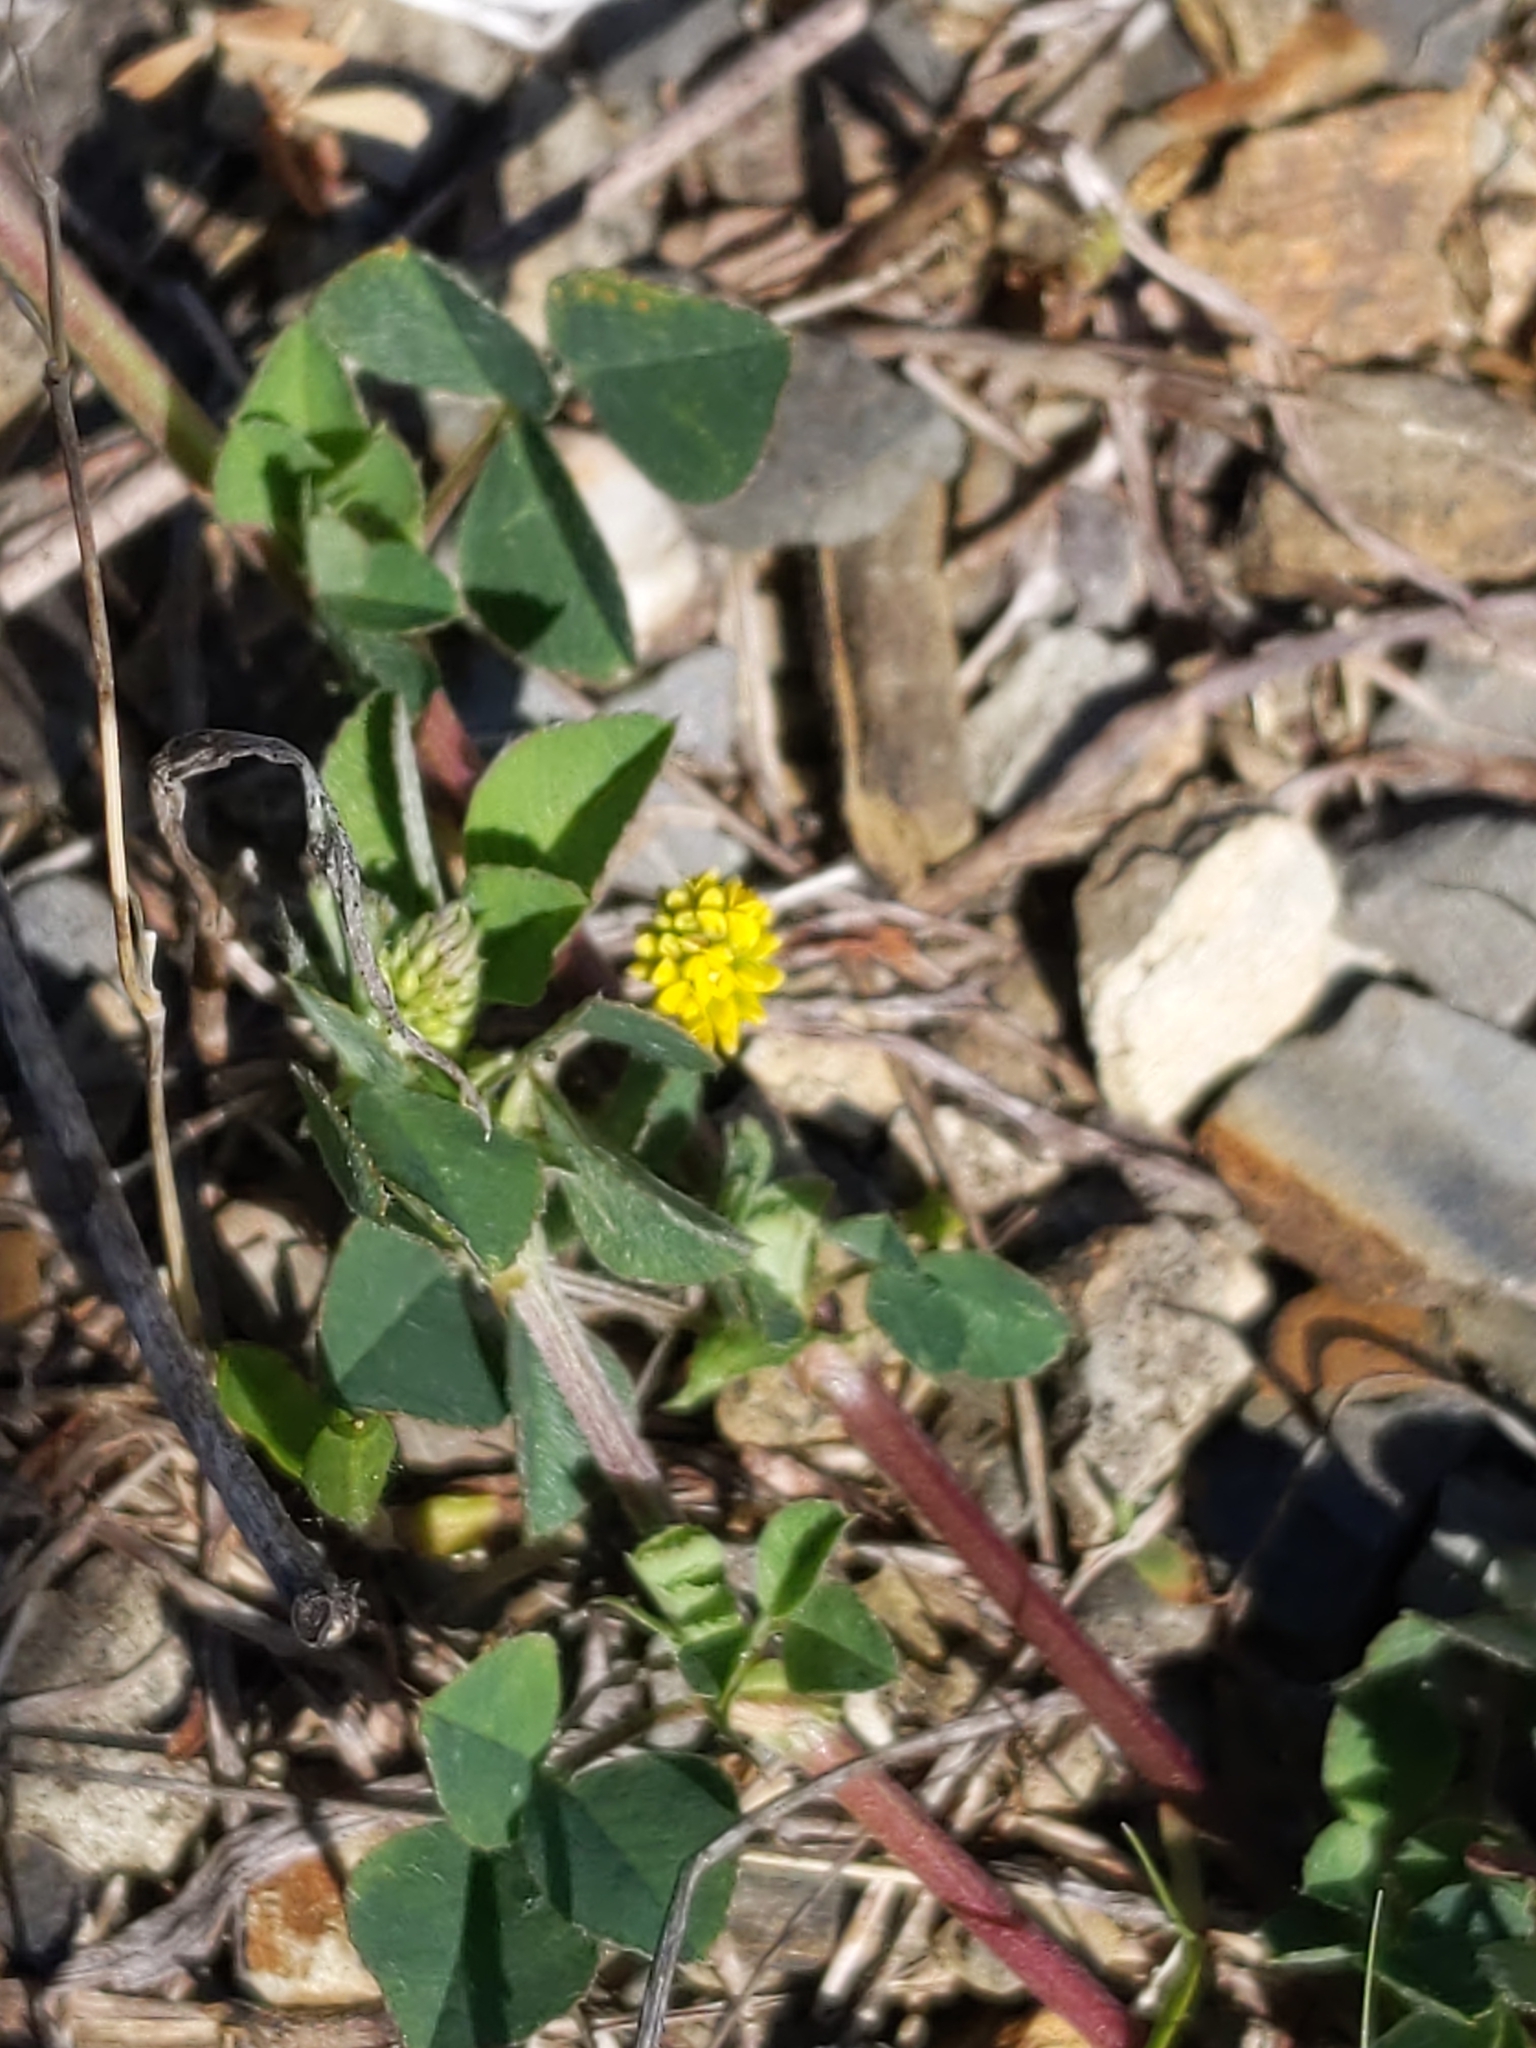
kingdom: Plantae
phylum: Tracheophyta
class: Magnoliopsida
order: Fabales
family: Fabaceae
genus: Medicago
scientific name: Medicago lupulina
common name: Black medick
